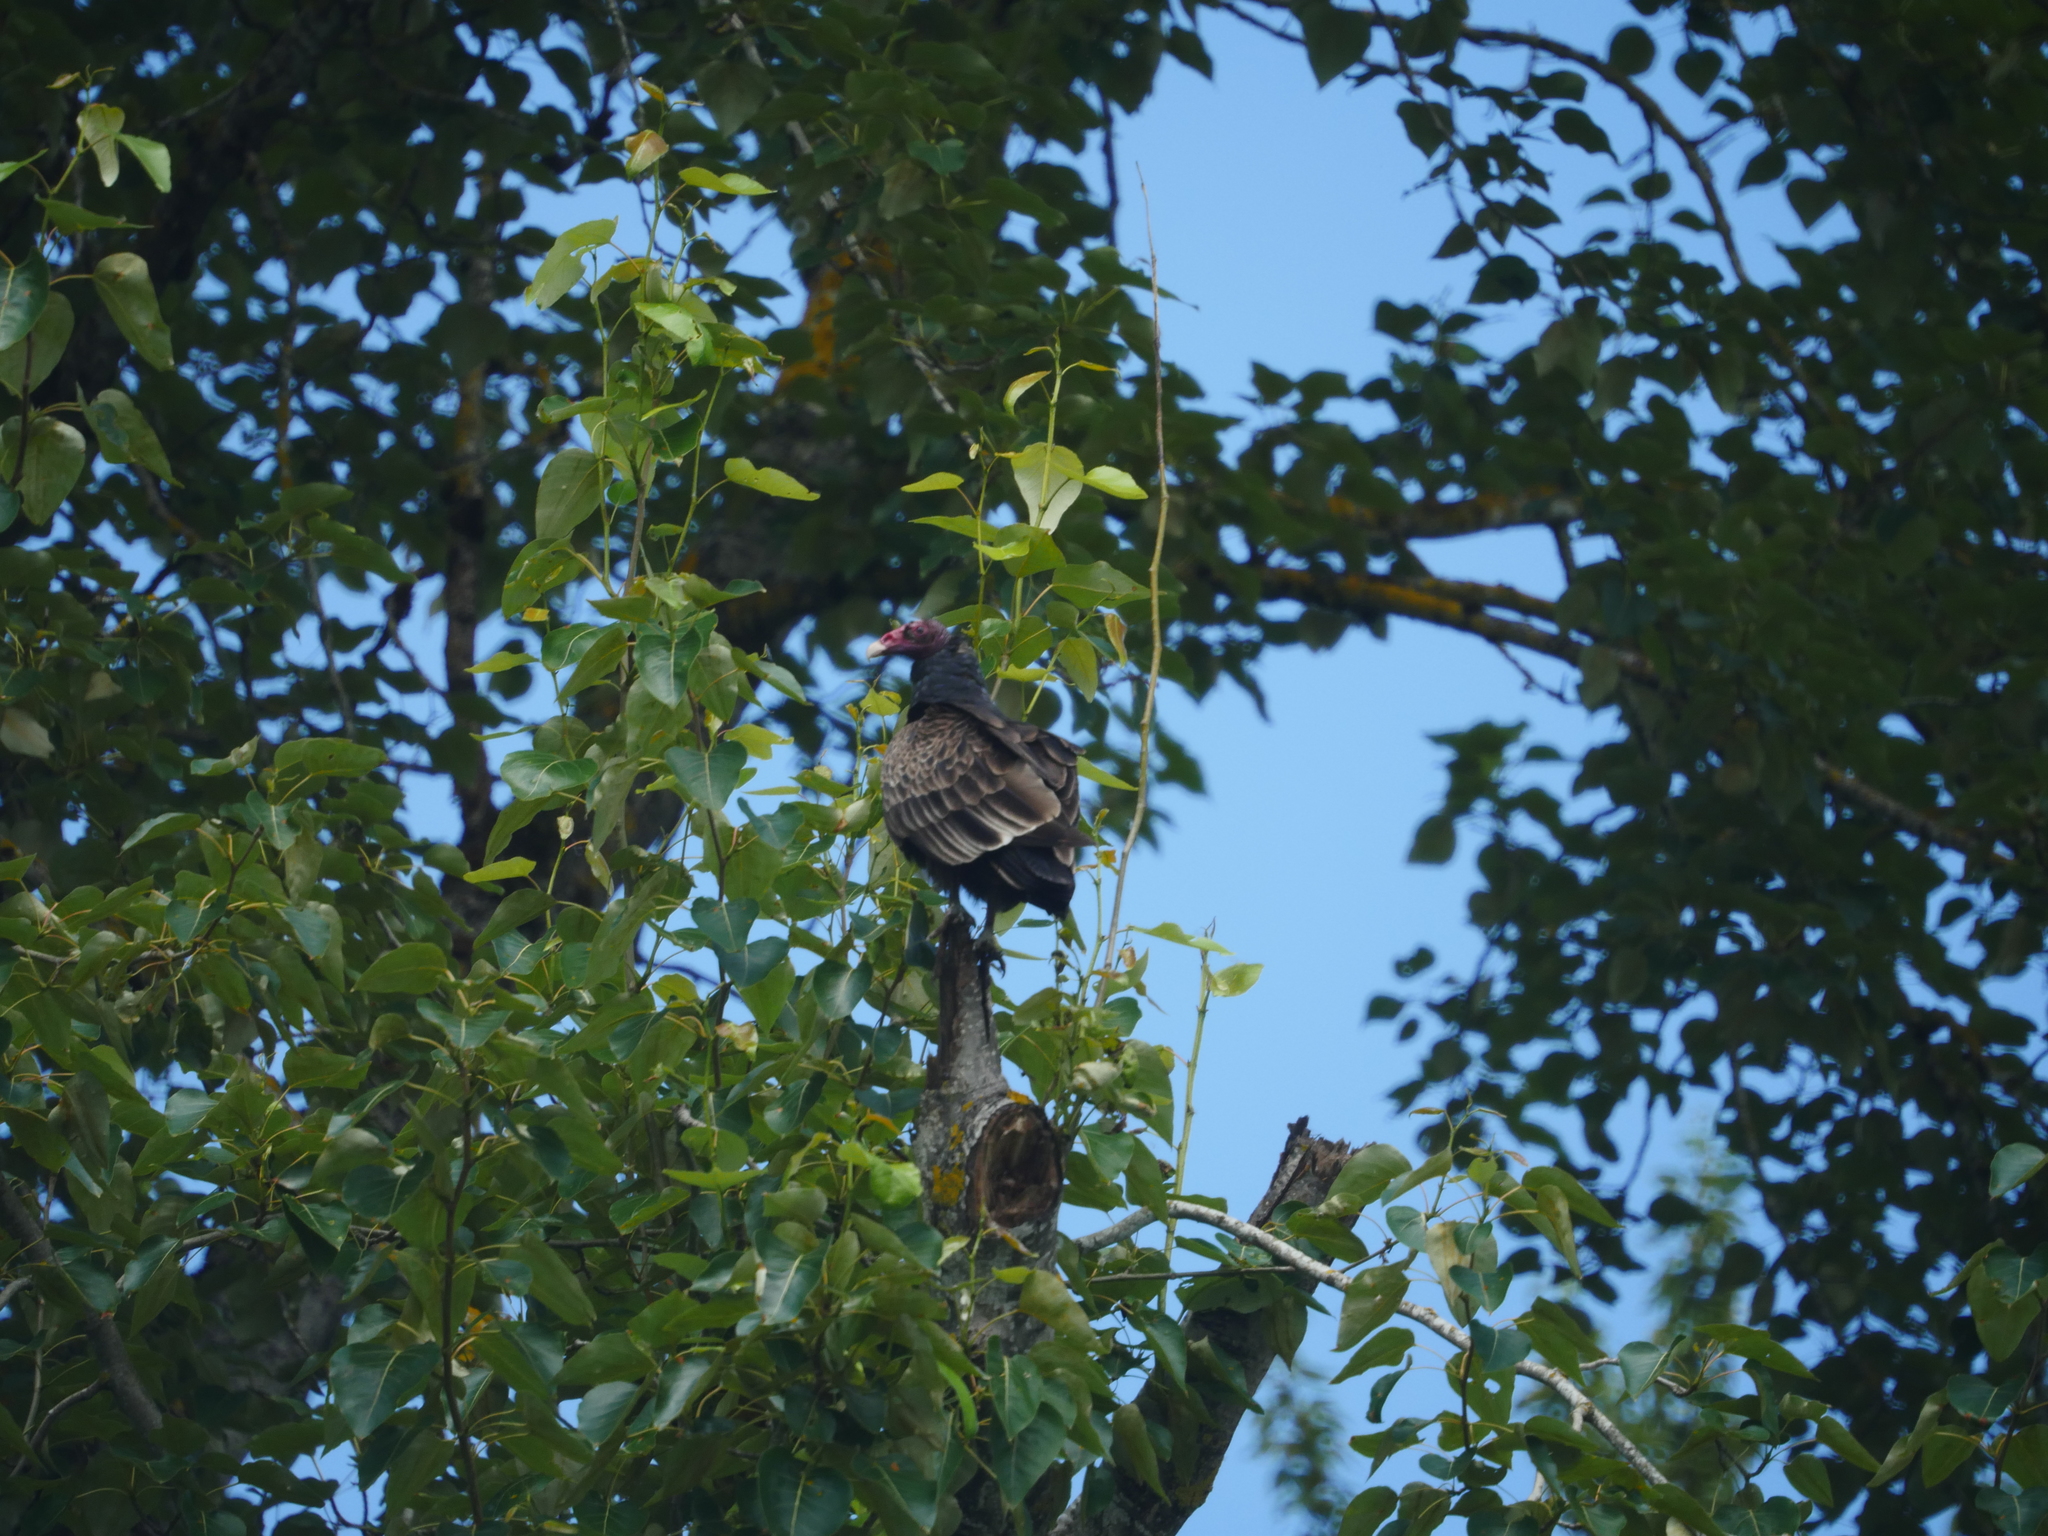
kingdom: Animalia
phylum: Chordata
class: Aves
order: Accipitriformes
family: Cathartidae
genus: Cathartes
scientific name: Cathartes aura
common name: Turkey vulture
